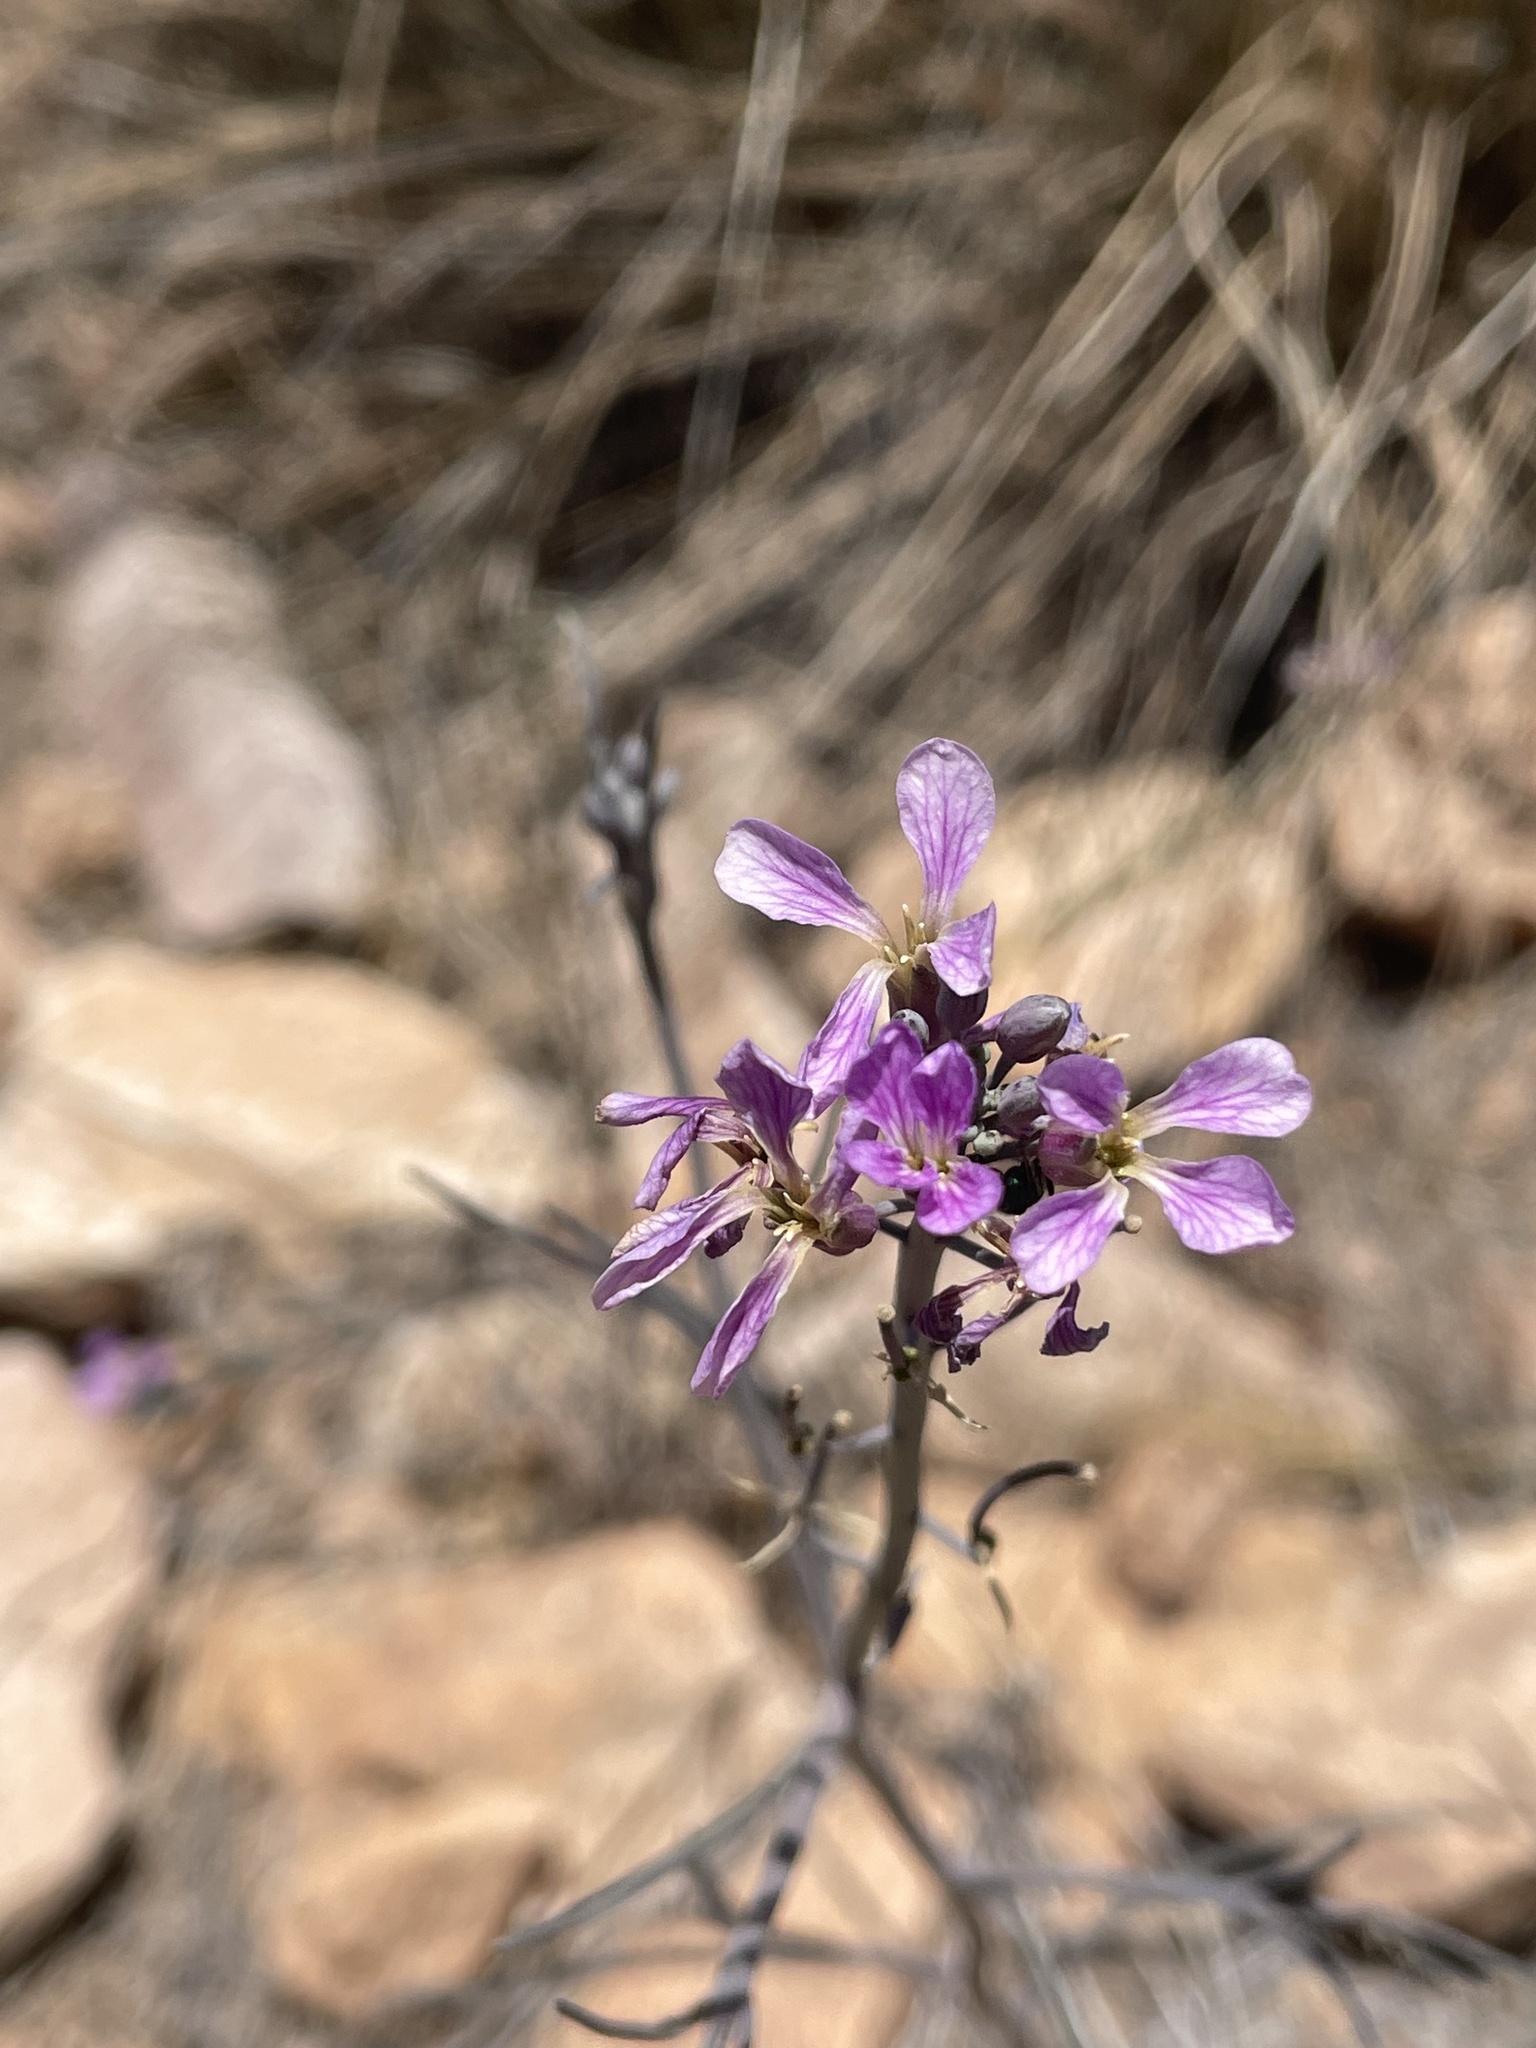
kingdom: Plantae
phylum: Tracheophyta
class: Magnoliopsida
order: Brassicales
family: Brassicaceae
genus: Hesperidanthus
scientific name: Hesperidanthus linearifolius
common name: Slim-leaf plains mustard
